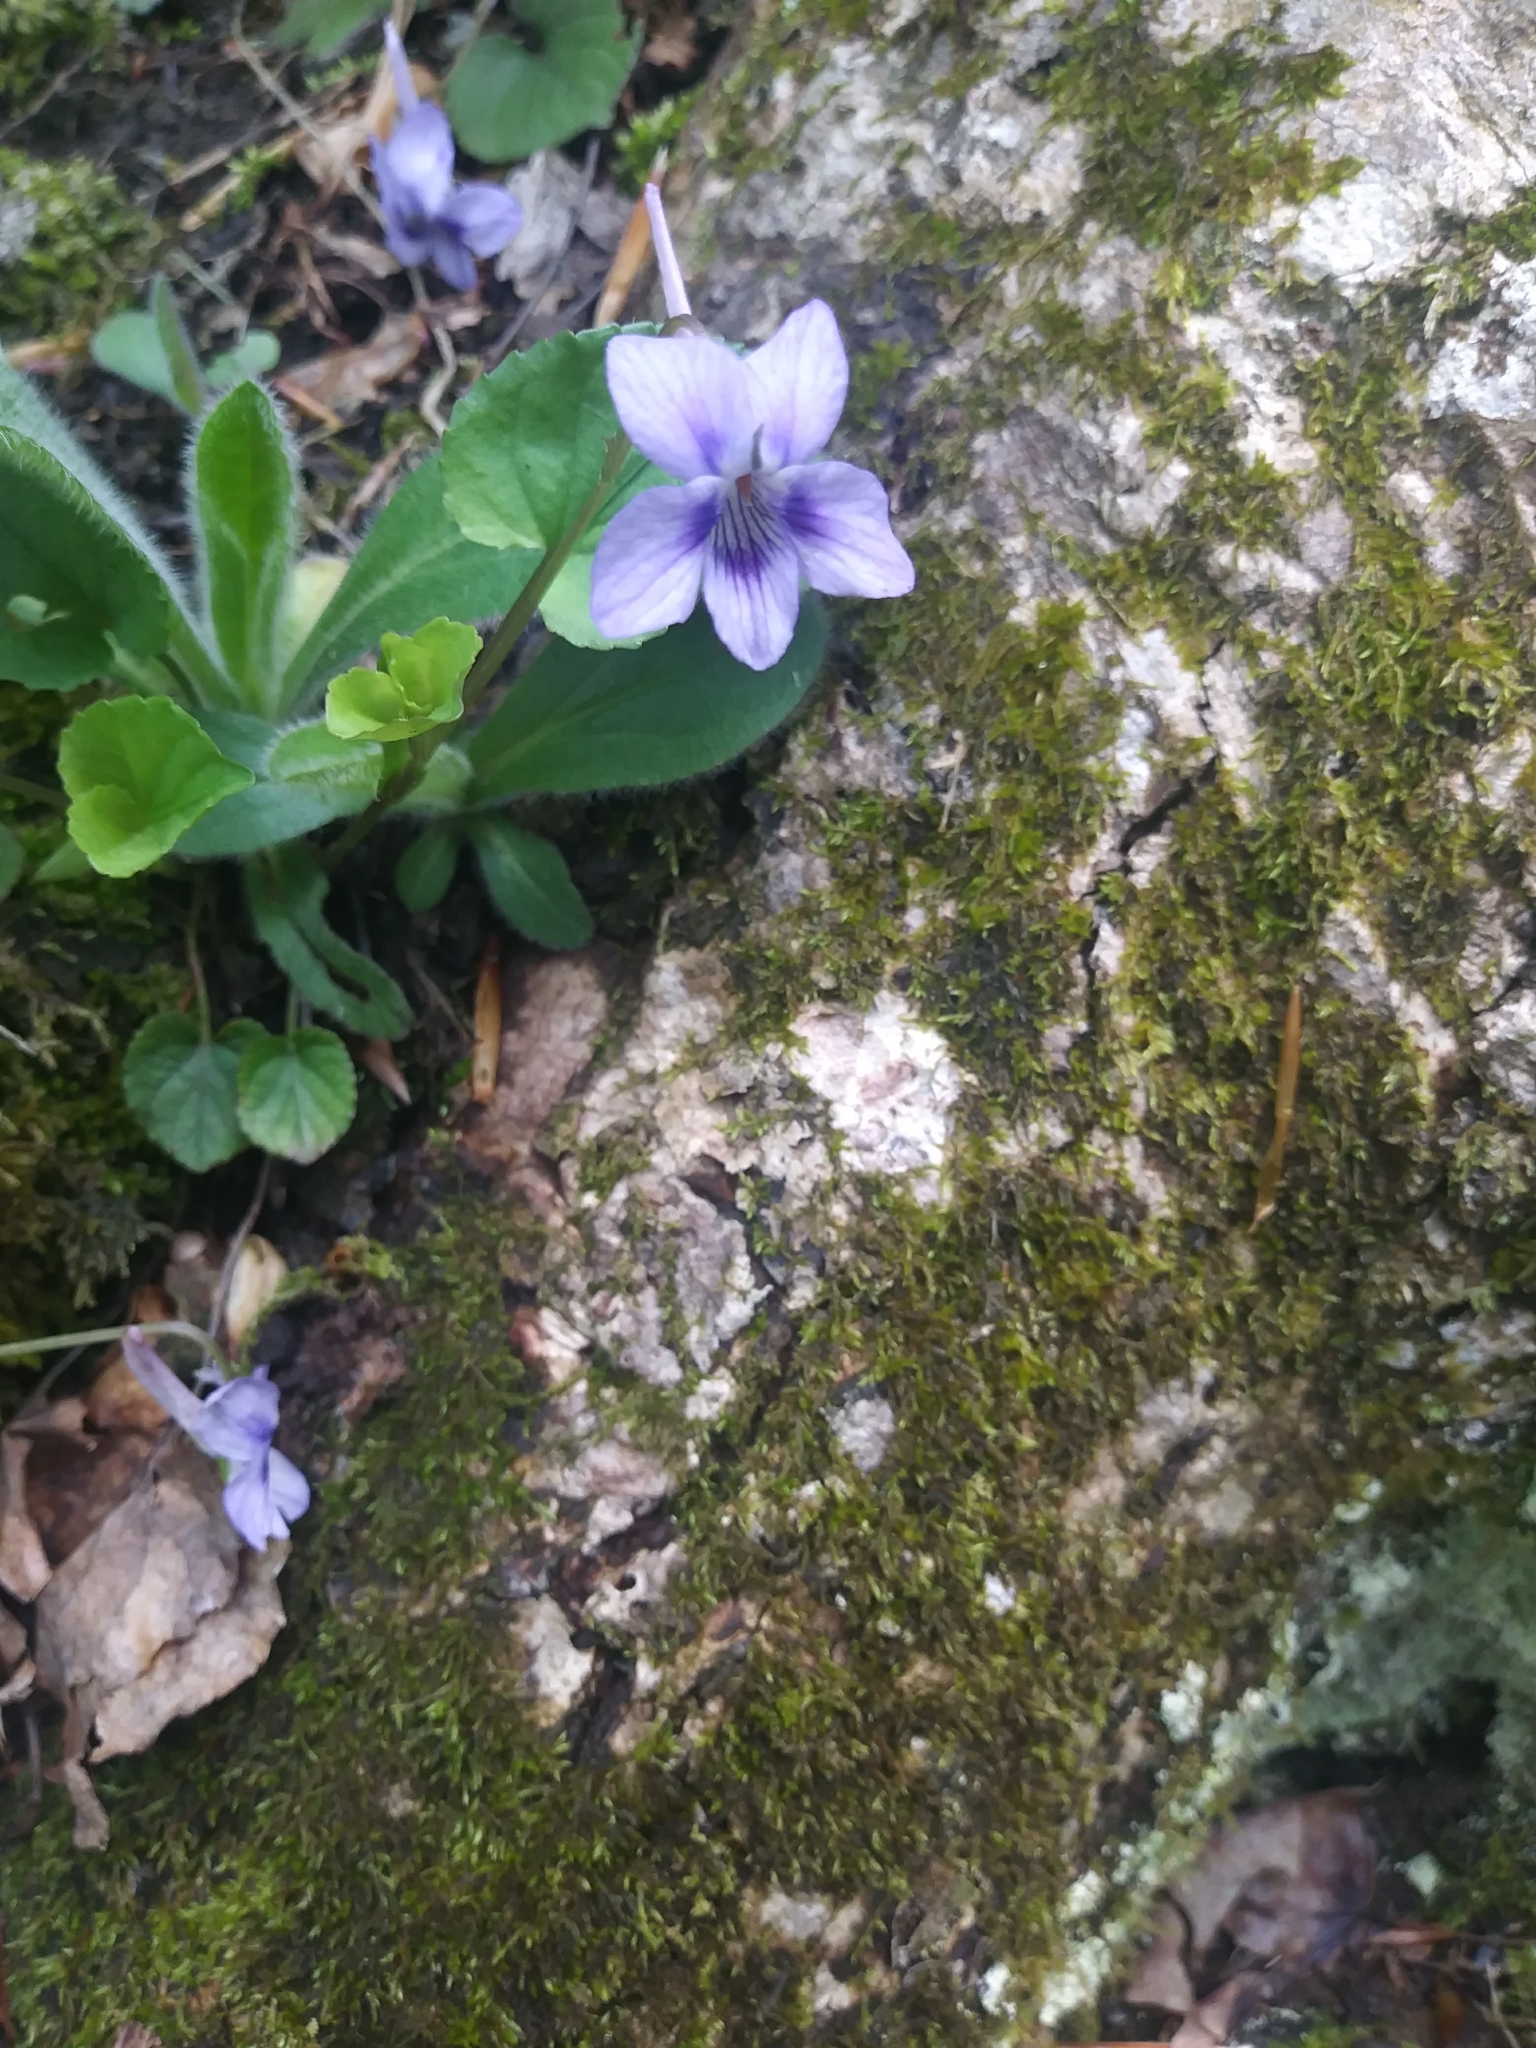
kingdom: Plantae
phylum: Tracheophyta
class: Magnoliopsida
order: Malpighiales
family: Violaceae
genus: Viola
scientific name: Viola rostrata
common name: Long-spur violet
